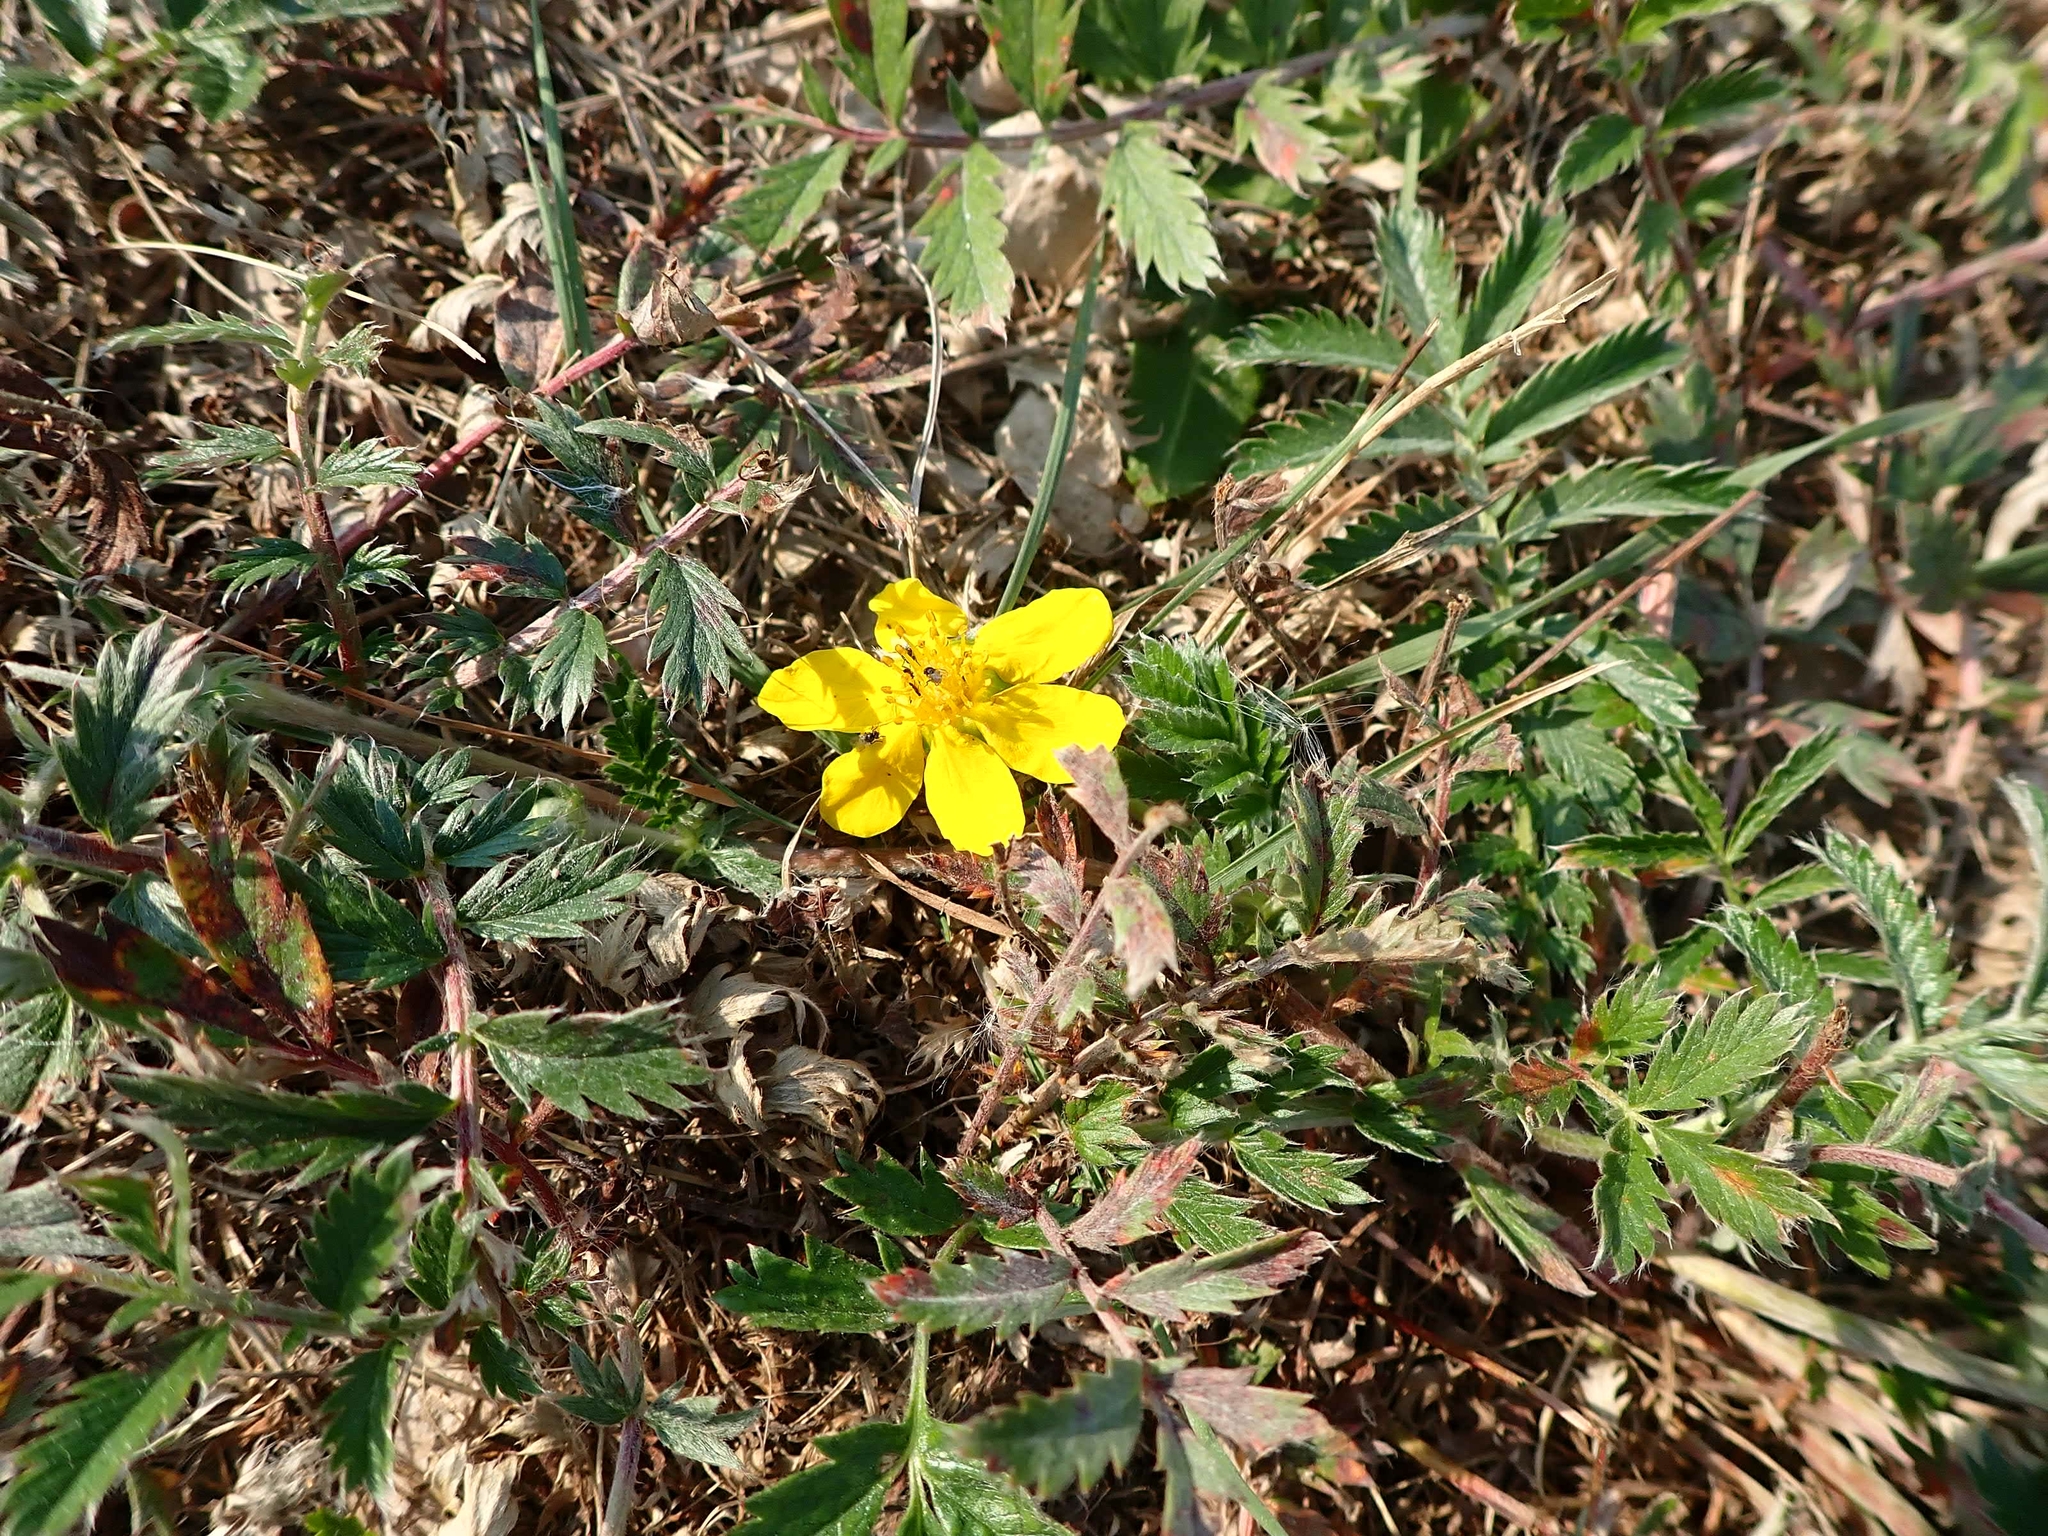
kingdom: Plantae
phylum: Tracheophyta
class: Magnoliopsida
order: Rosales
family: Rosaceae
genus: Argentina
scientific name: Argentina anserina
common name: Common silverweed
